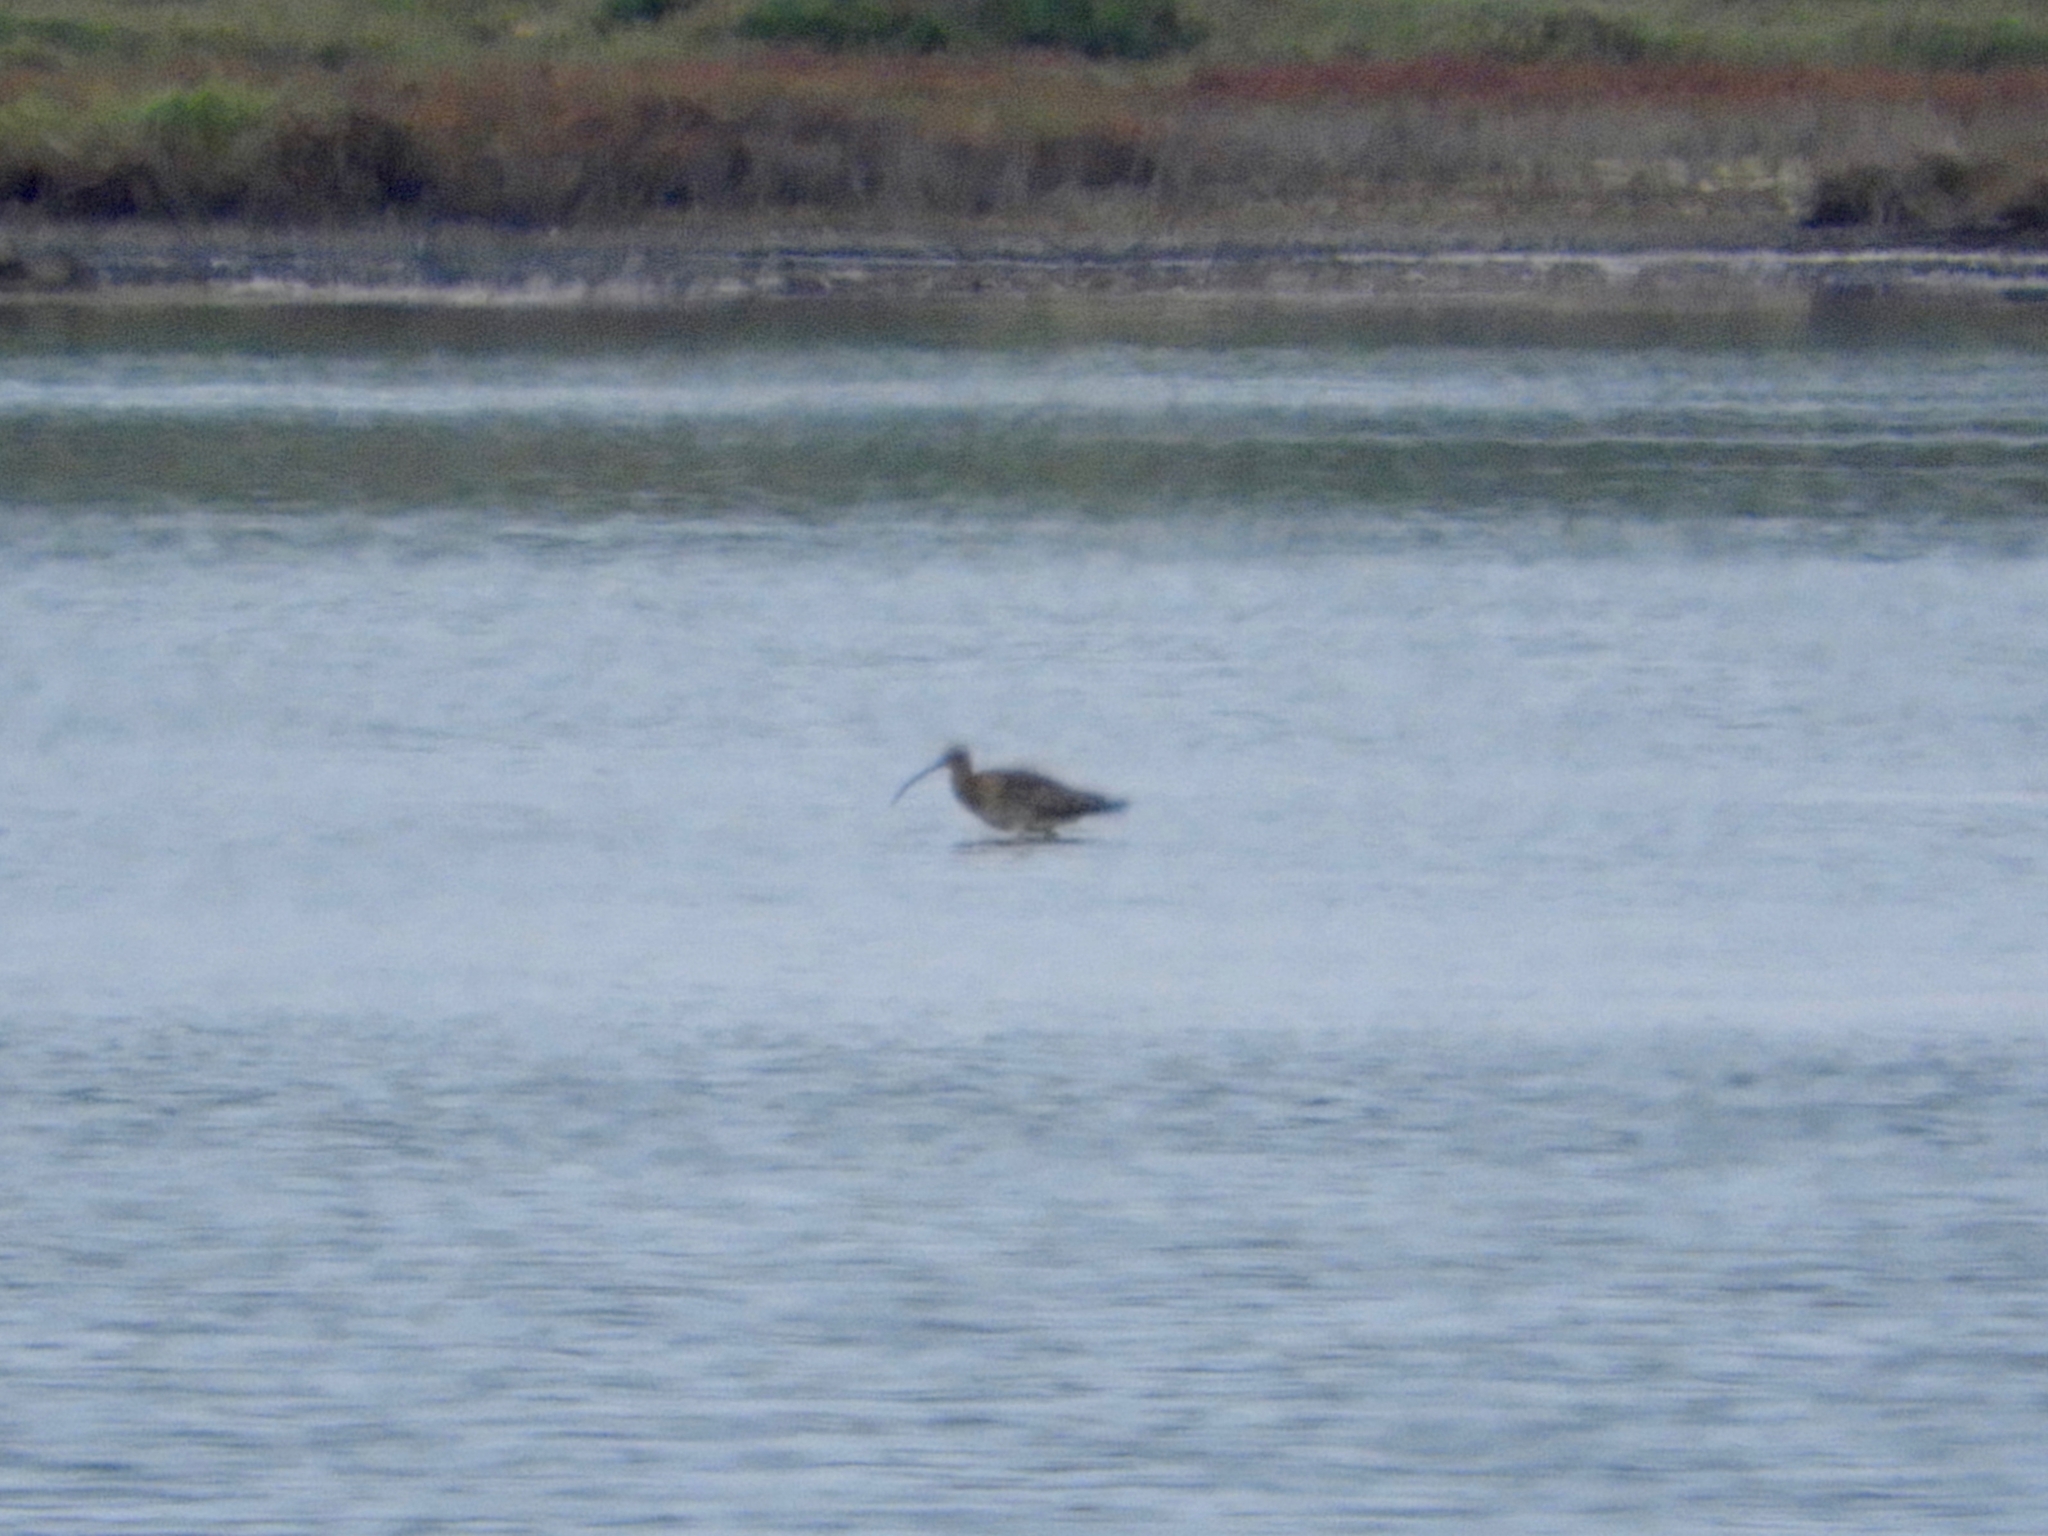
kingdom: Animalia
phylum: Chordata
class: Aves
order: Charadriiformes
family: Scolopacidae
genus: Numenius
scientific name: Numenius arquata
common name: Eurasian curlew
